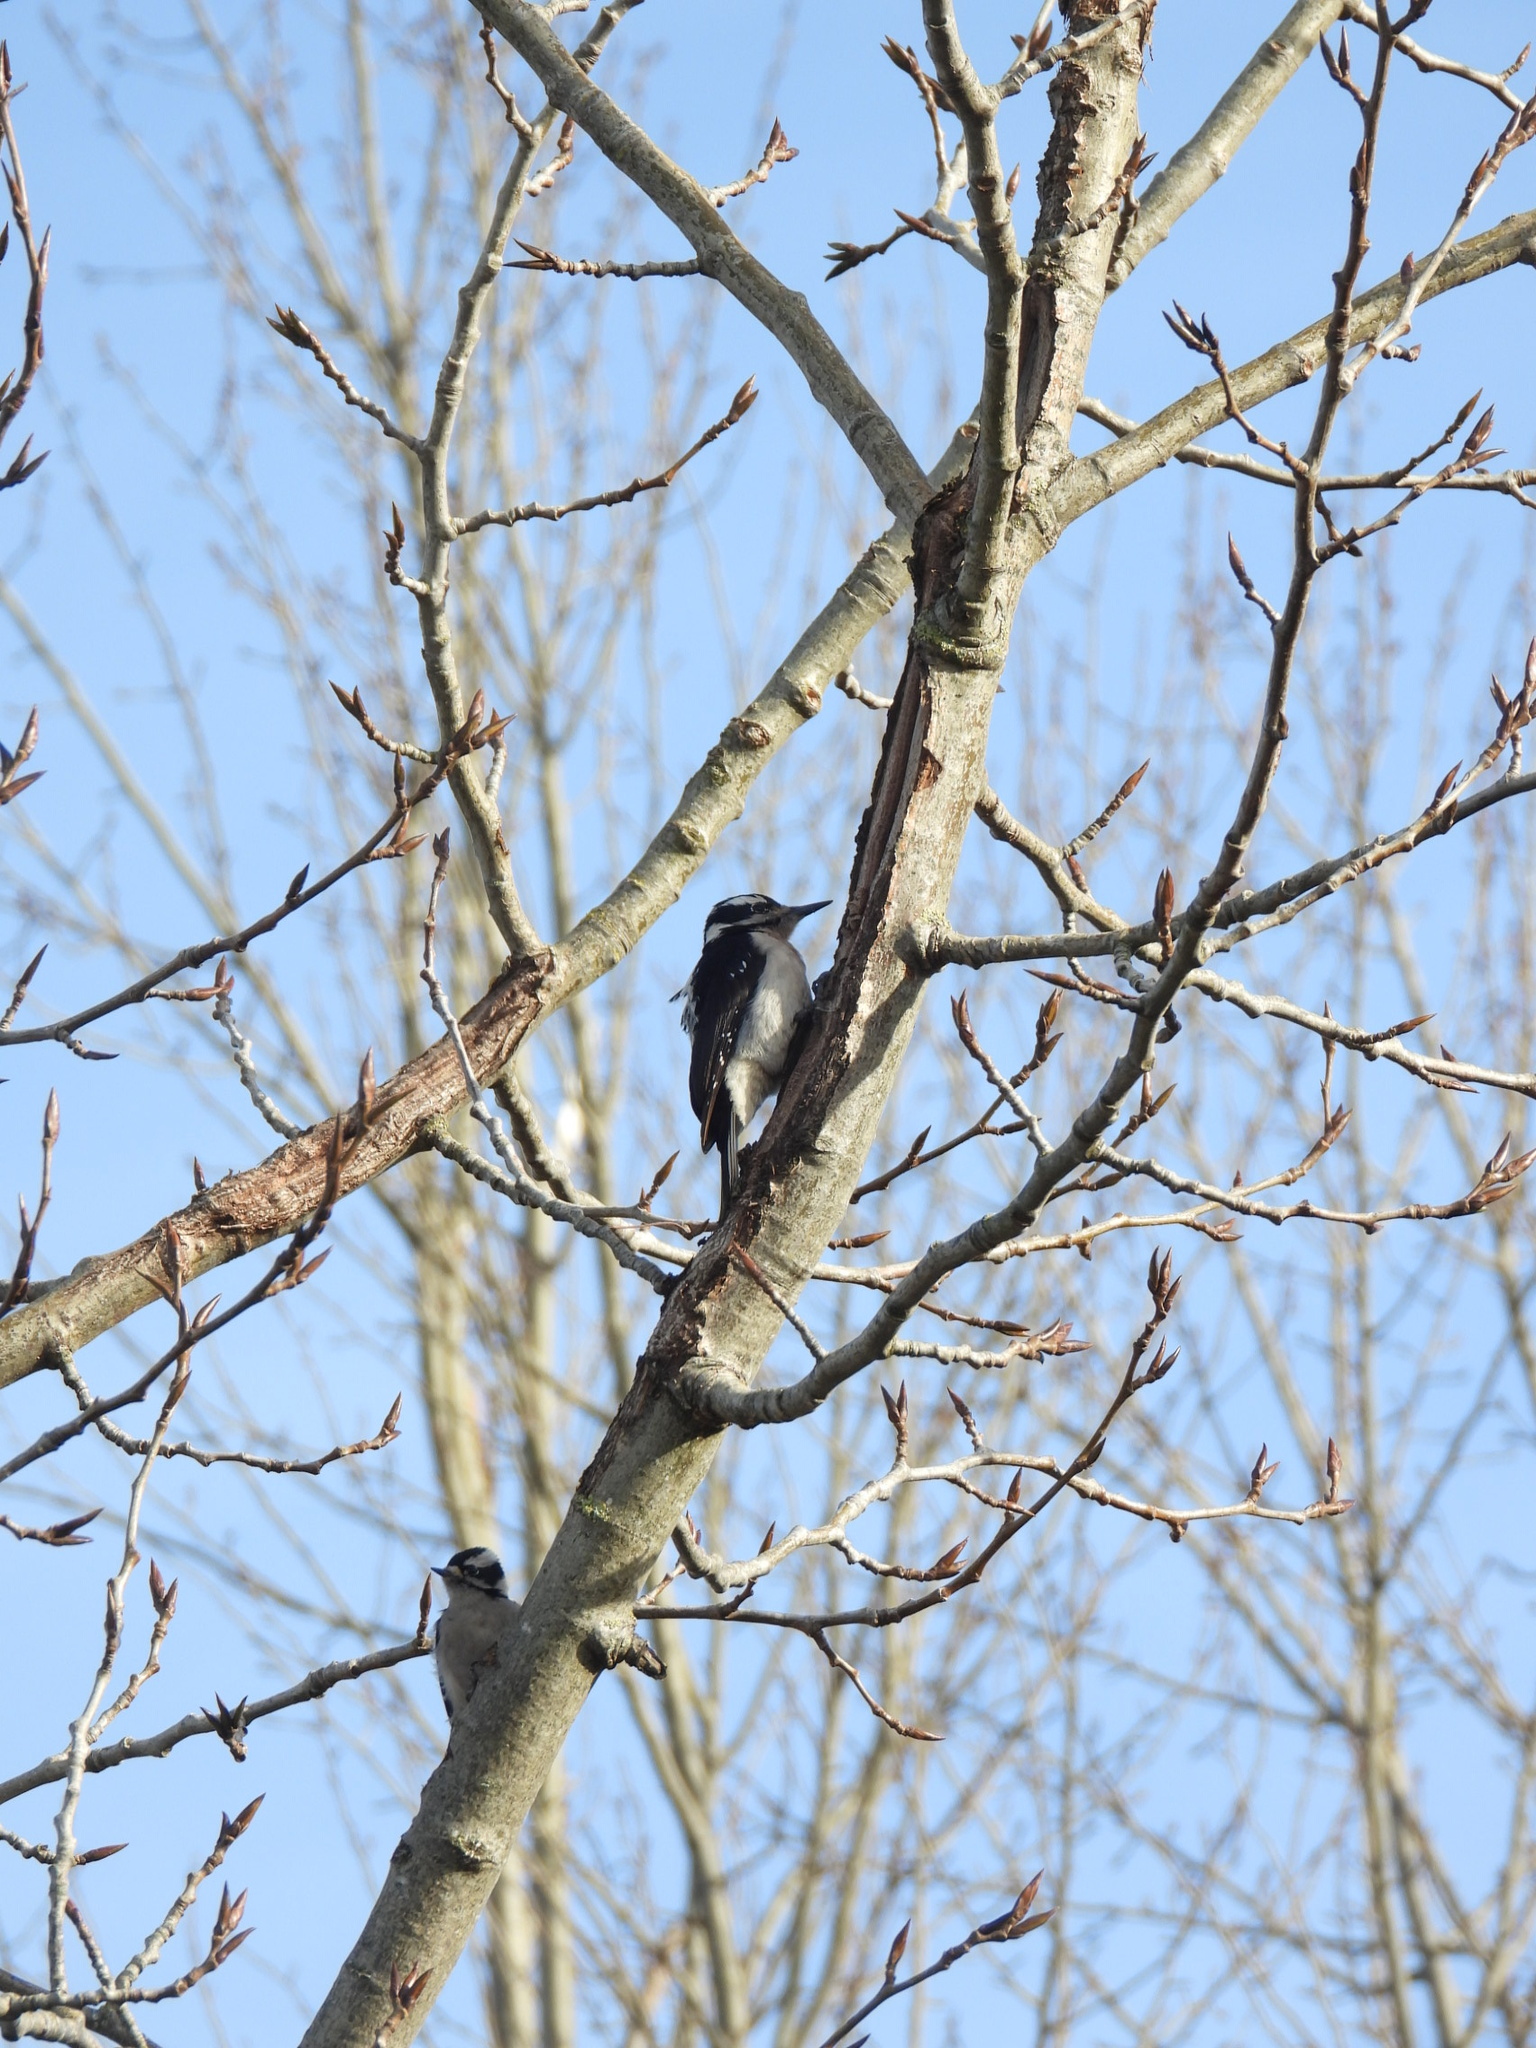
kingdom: Animalia
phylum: Chordata
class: Aves
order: Piciformes
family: Picidae
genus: Leuconotopicus
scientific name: Leuconotopicus villosus
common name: Hairy woodpecker
